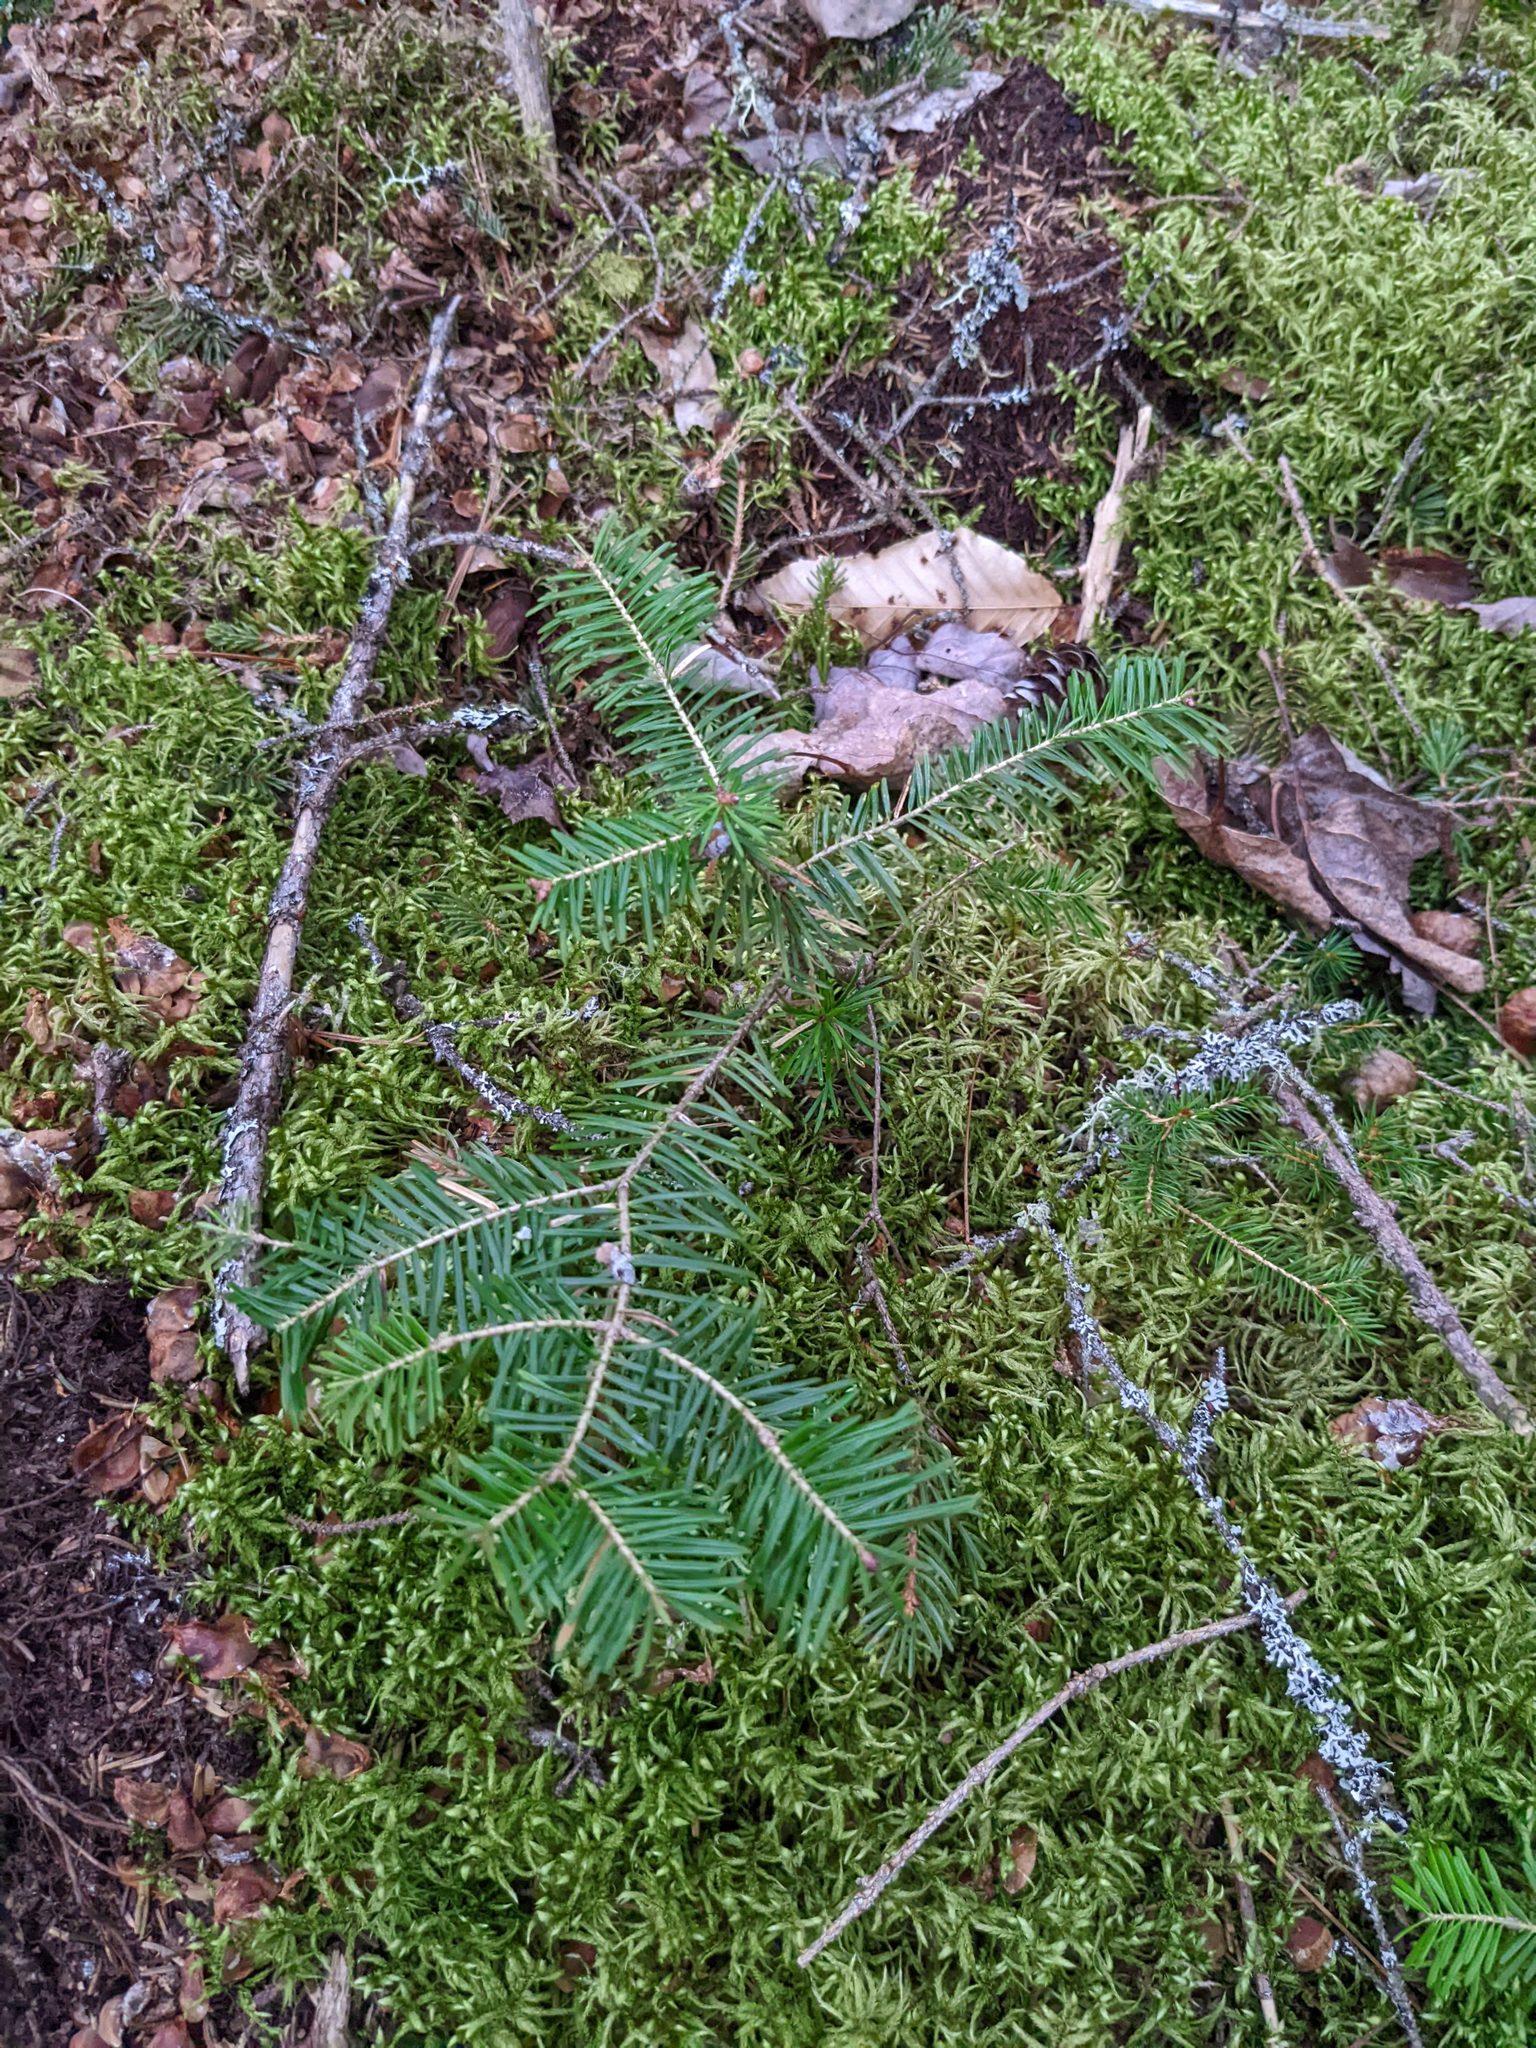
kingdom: Plantae
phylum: Tracheophyta
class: Pinopsida
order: Pinales
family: Pinaceae
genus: Abies
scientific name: Abies balsamea
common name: Balsam fir
